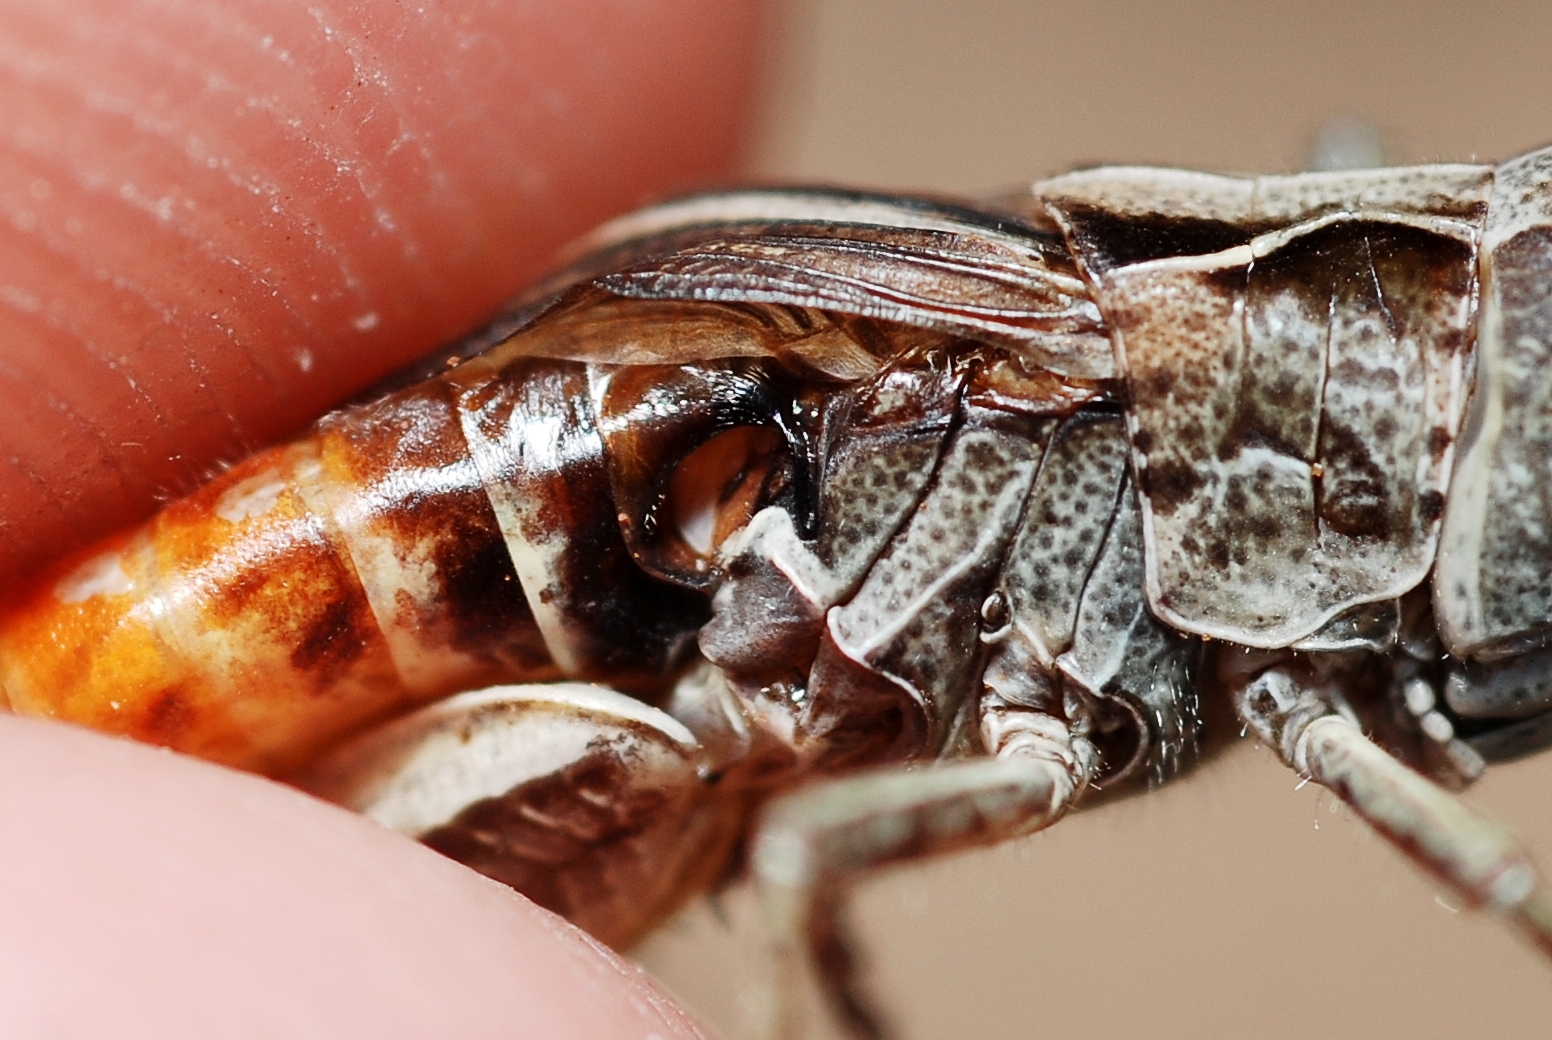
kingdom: Animalia
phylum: Arthropoda
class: Insecta
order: Orthoptera
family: Acrididae
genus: Chorthippus
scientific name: Chorthippus vagans
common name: Heath grasshopper
